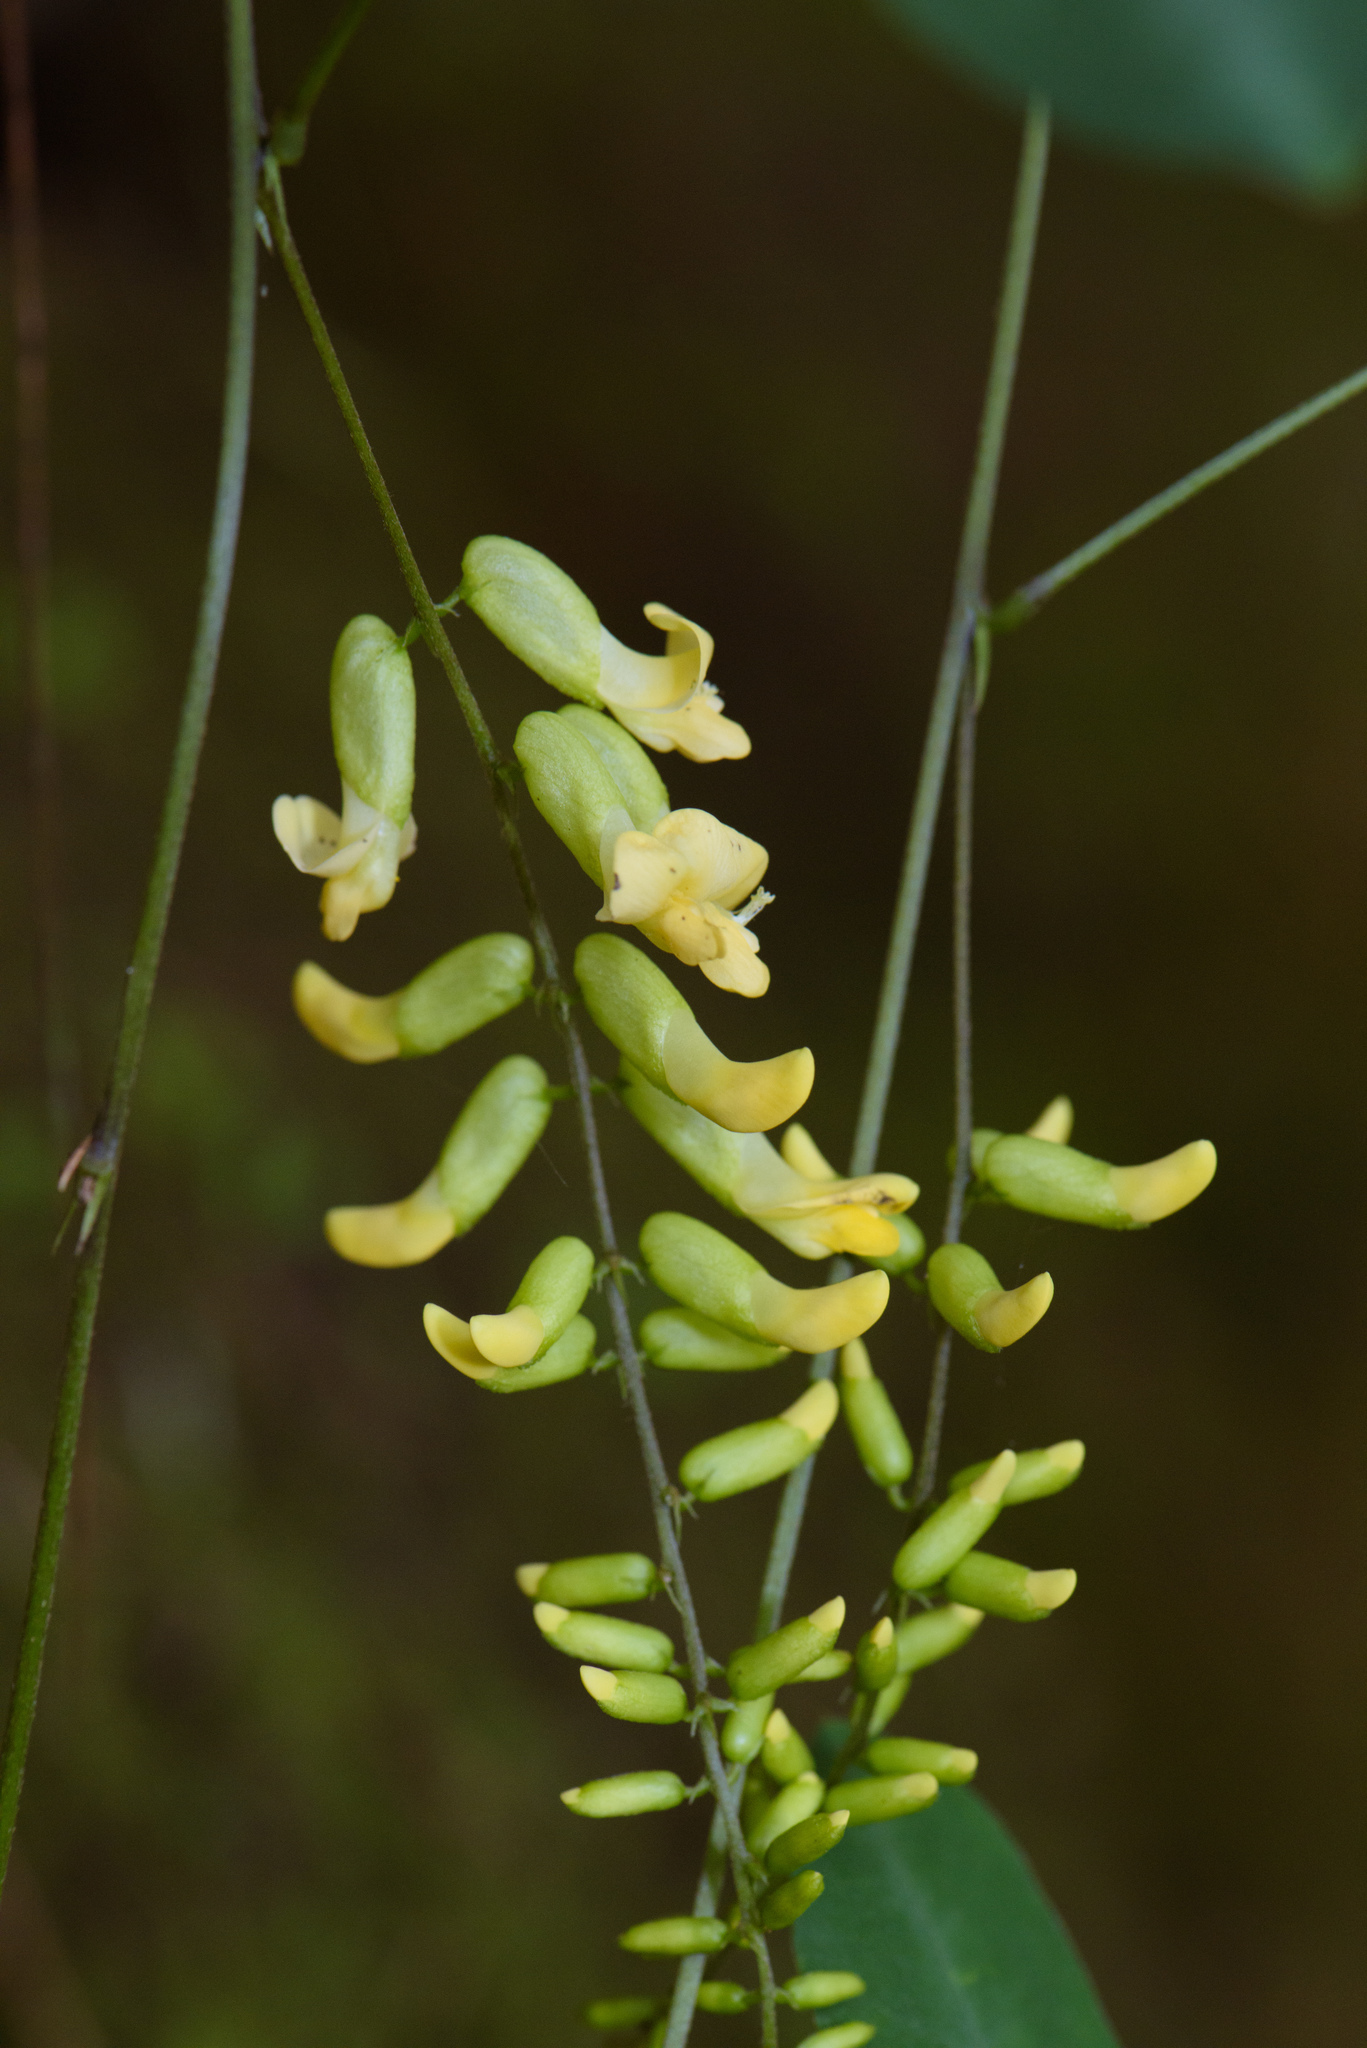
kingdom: Plantae
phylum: Tracheophyta
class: Magnoliopsida
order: Fabales
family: Fabaceae
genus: Dumasia
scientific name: Dumasia villosa
